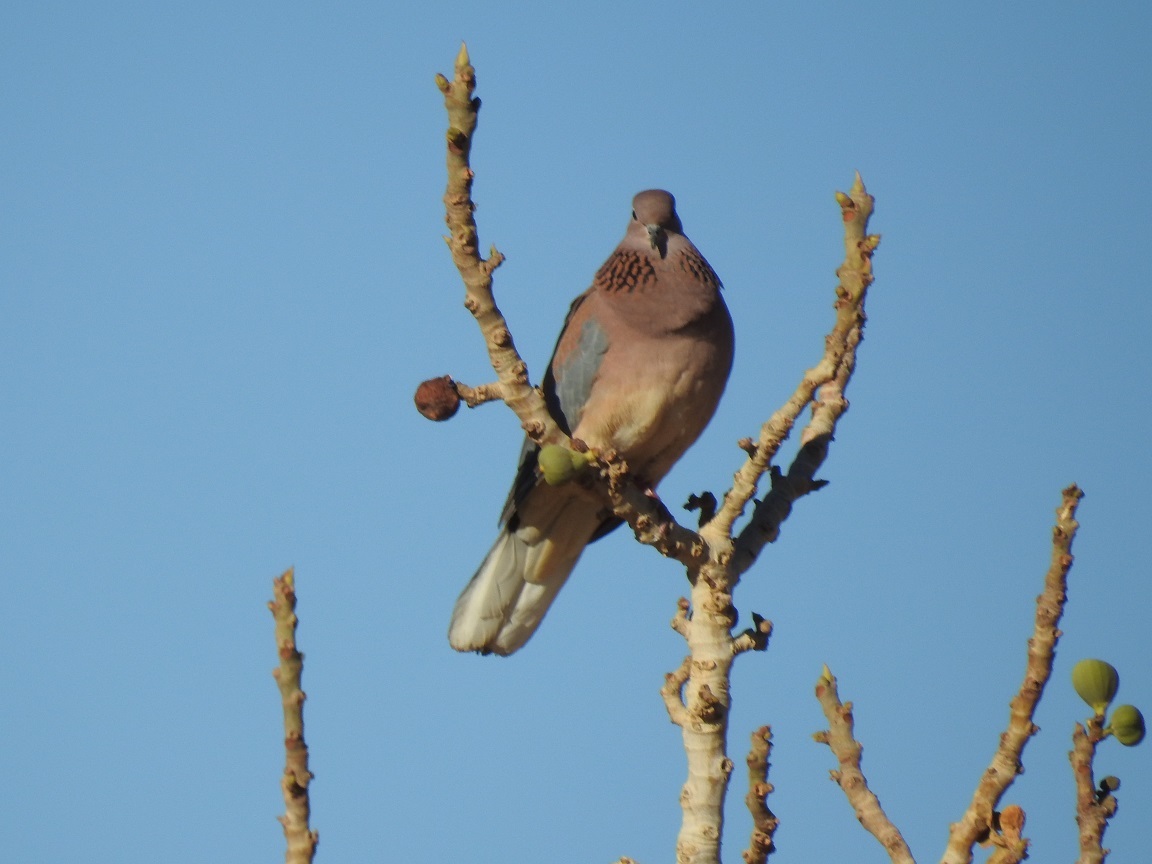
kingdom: Animalia
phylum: Chordata
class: Aves
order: Columbiformes
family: Columbidae
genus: Spilopelia
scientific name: Spilopelia senegalensis
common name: Laughing dove
